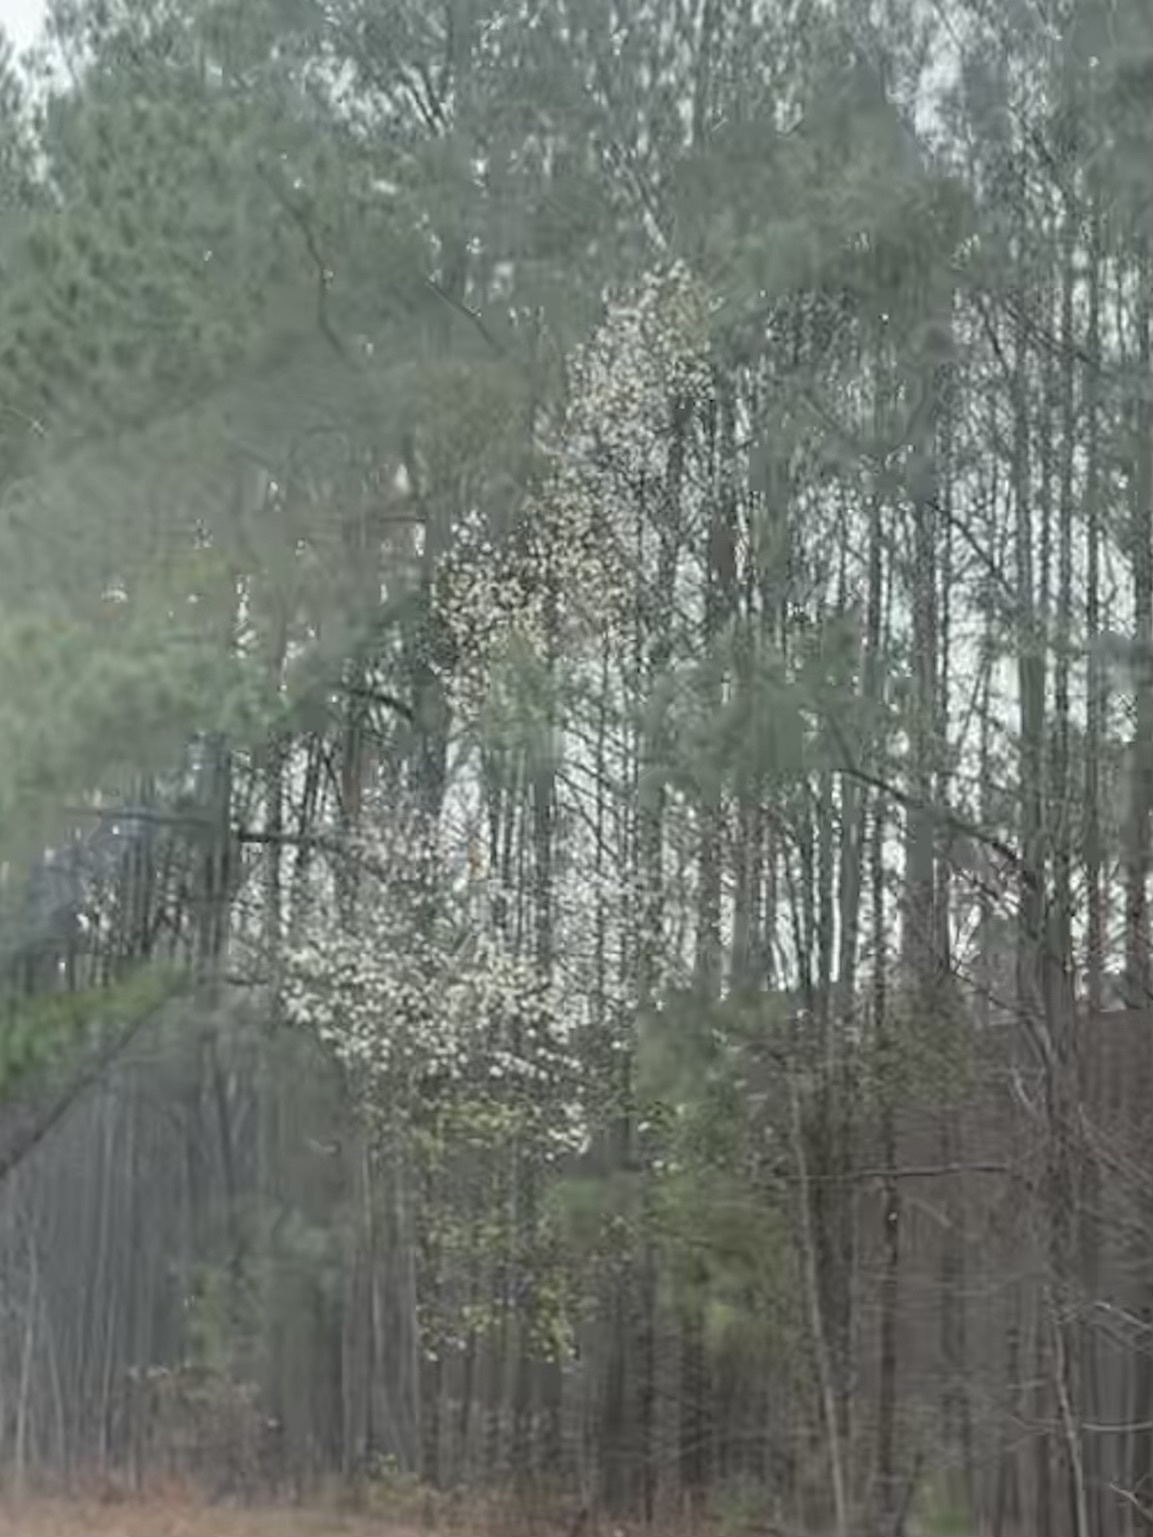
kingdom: Plantae
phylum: Tracheophyta
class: Magnoliopsida
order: Rosales
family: Rosaceae
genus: Pyrus
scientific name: Pyrus calleryana
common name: Callery pear
